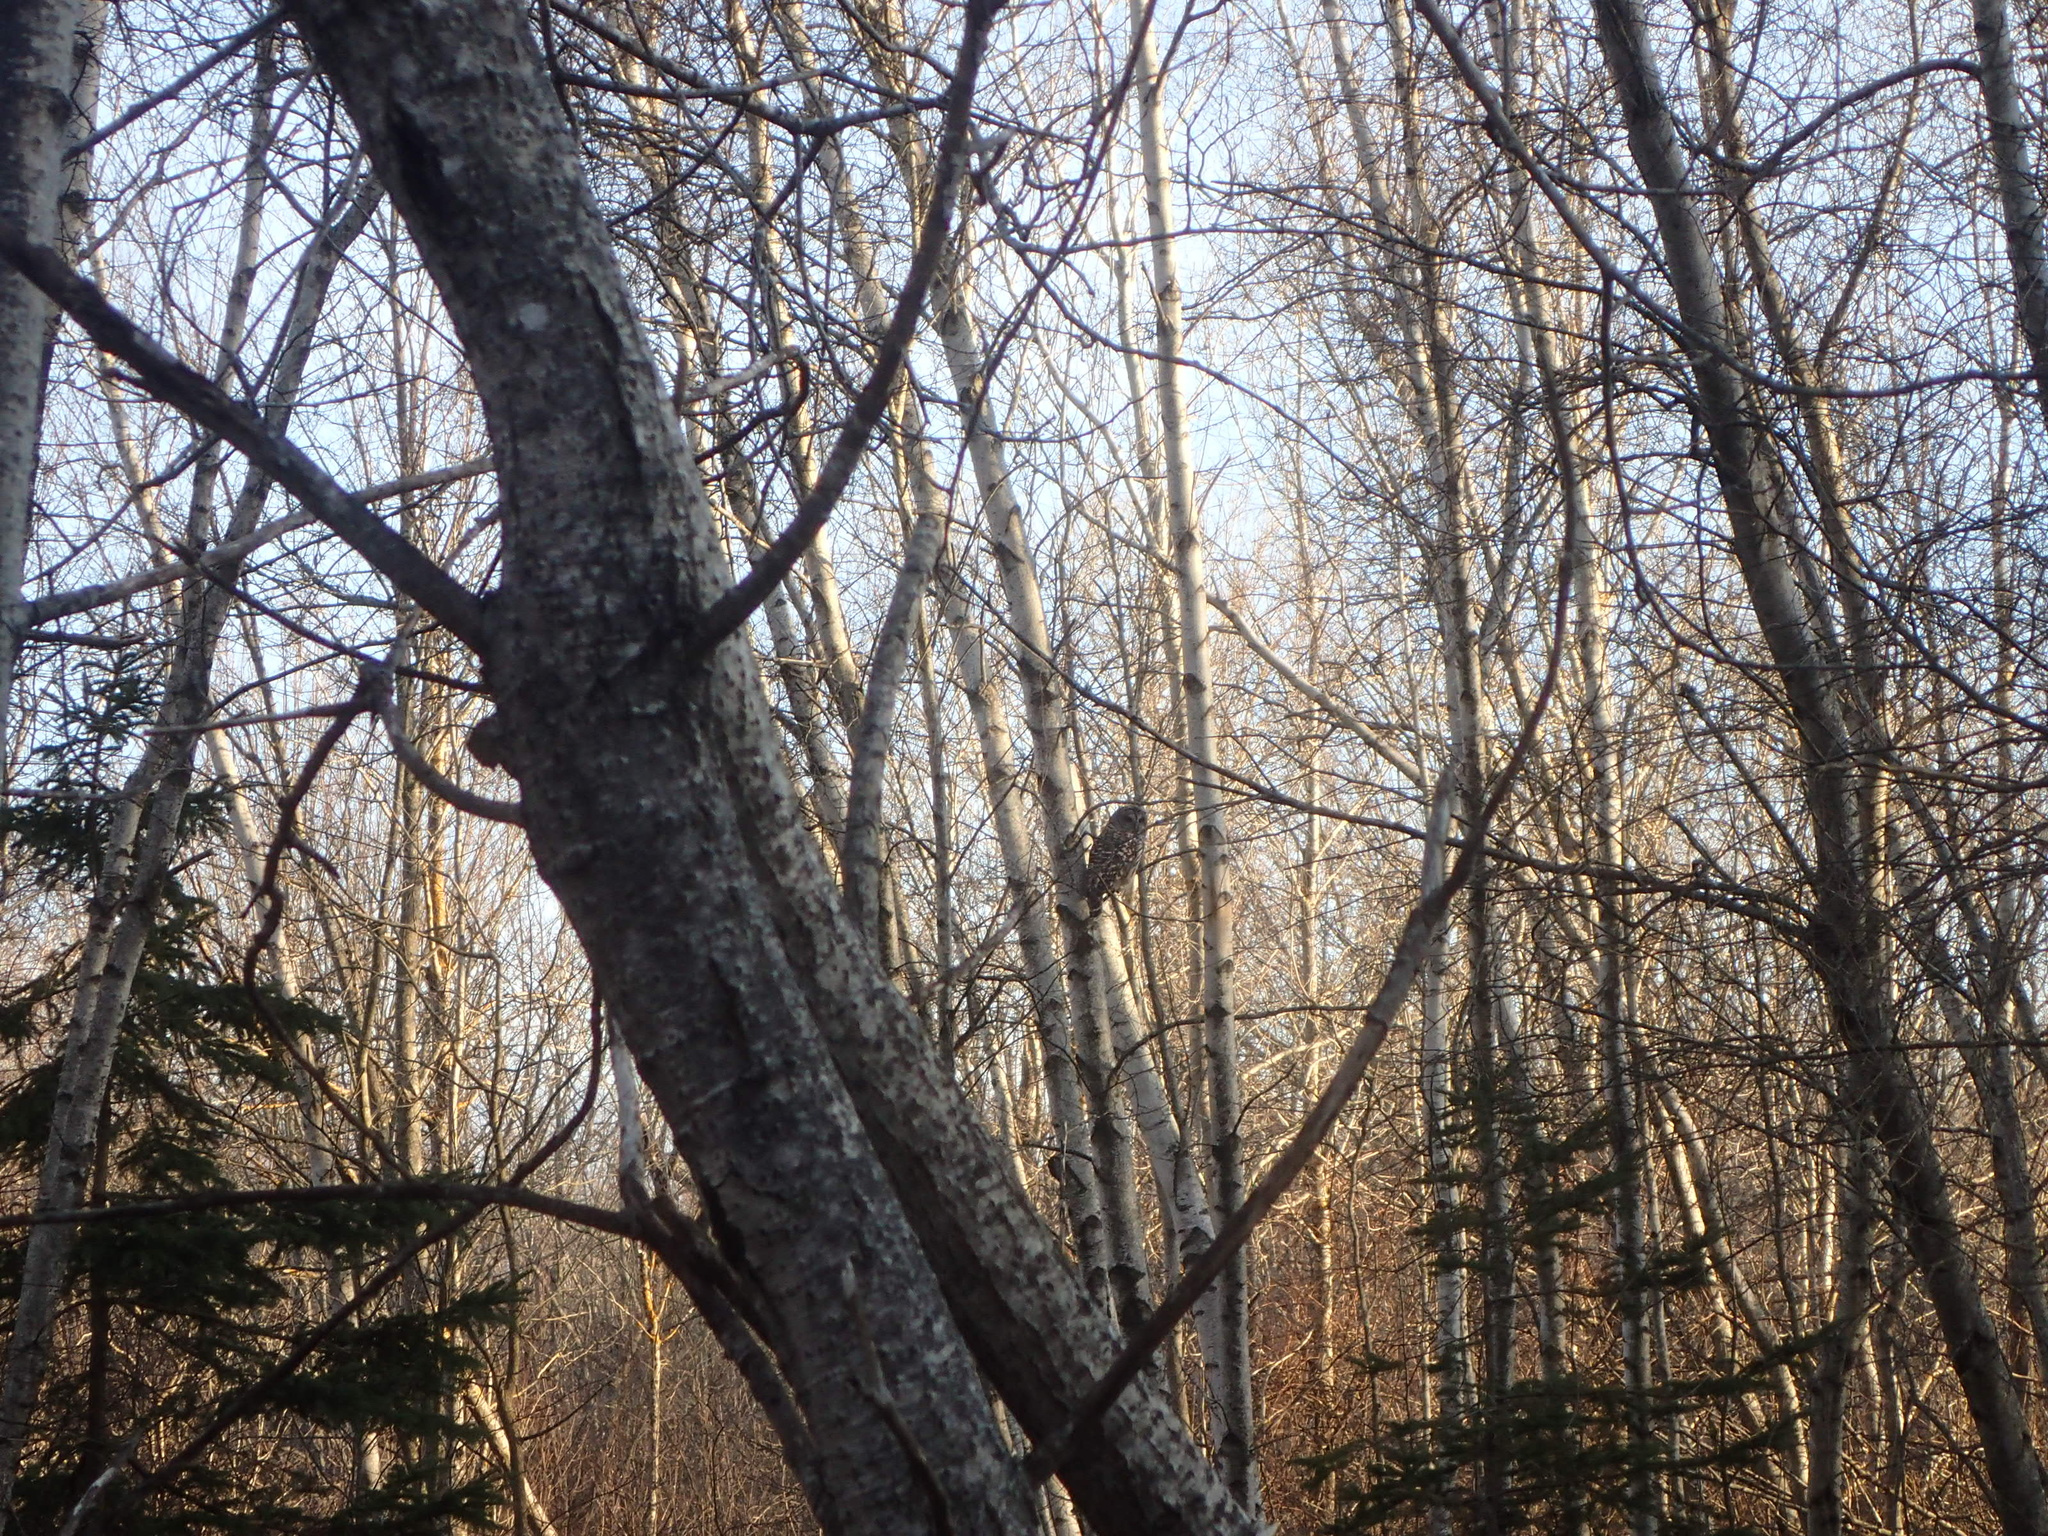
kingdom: Animalia
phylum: Chordata
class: Aves
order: Strigiformes
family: Strigidae
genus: Strix
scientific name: Strix varia
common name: Barred owl
